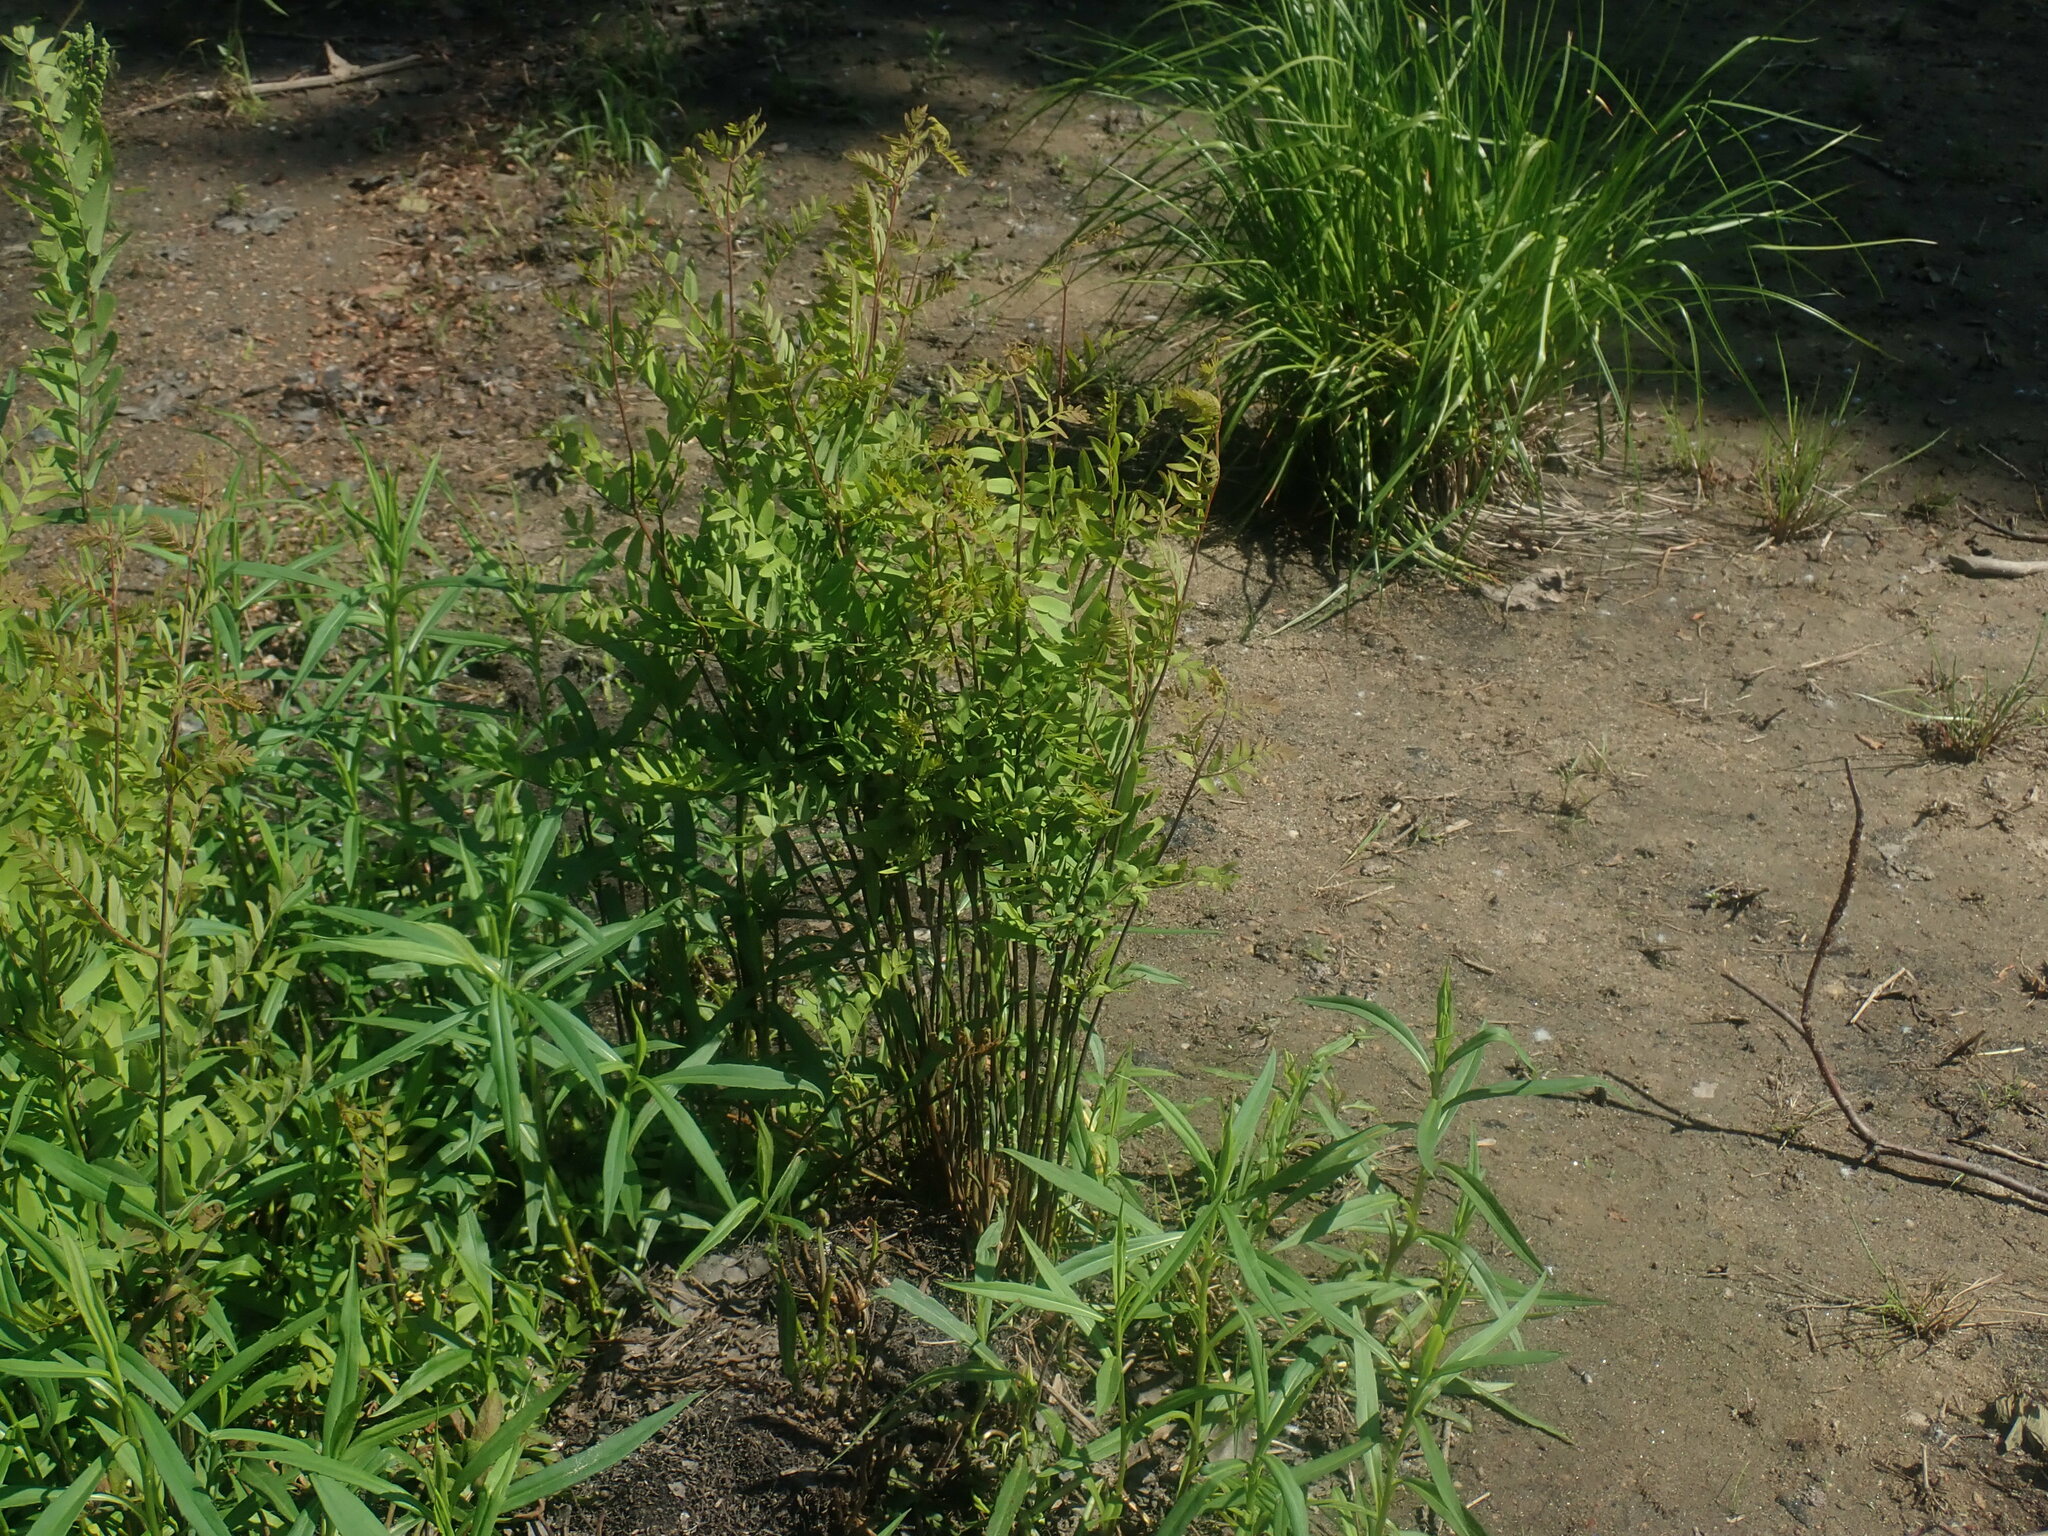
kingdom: Plantae
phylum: Tracheophyta
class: Polypodiopsida
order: Osmundales
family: Osmundaceae
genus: Osmunda
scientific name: Osmunda spectabilis
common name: American royal fern
